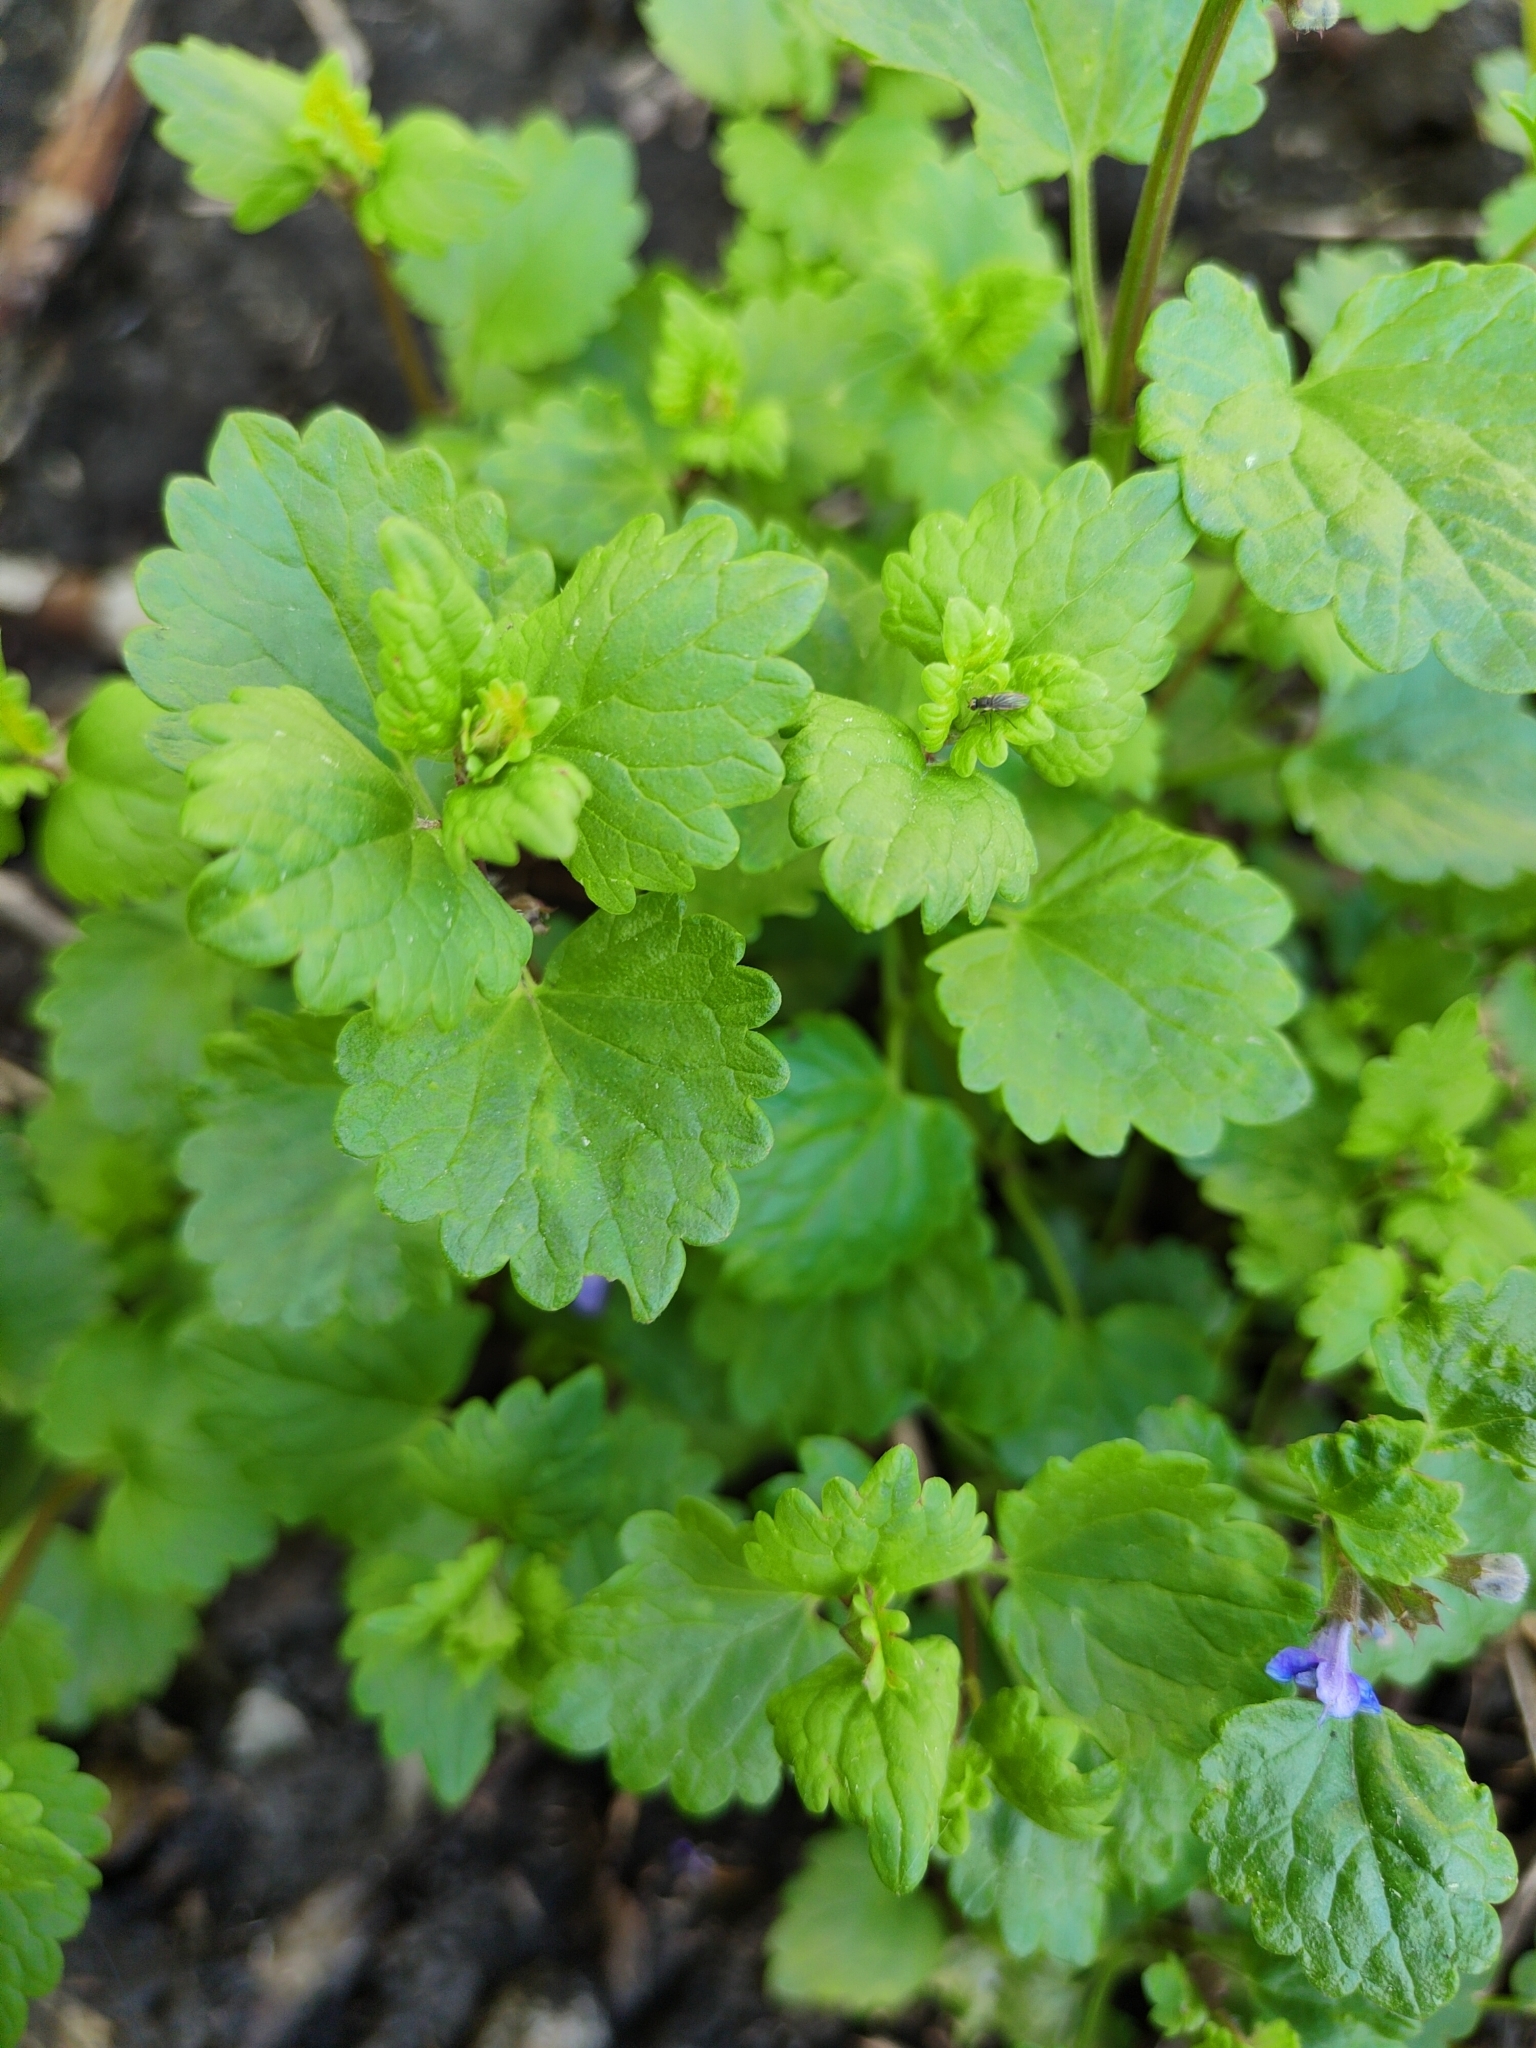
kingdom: Plantae
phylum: Tracheophyta
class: Magnoliopsida
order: Lamiales
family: Lamiaceae
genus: Glechoma
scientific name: Glechoma hederacea
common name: Ground ivy
